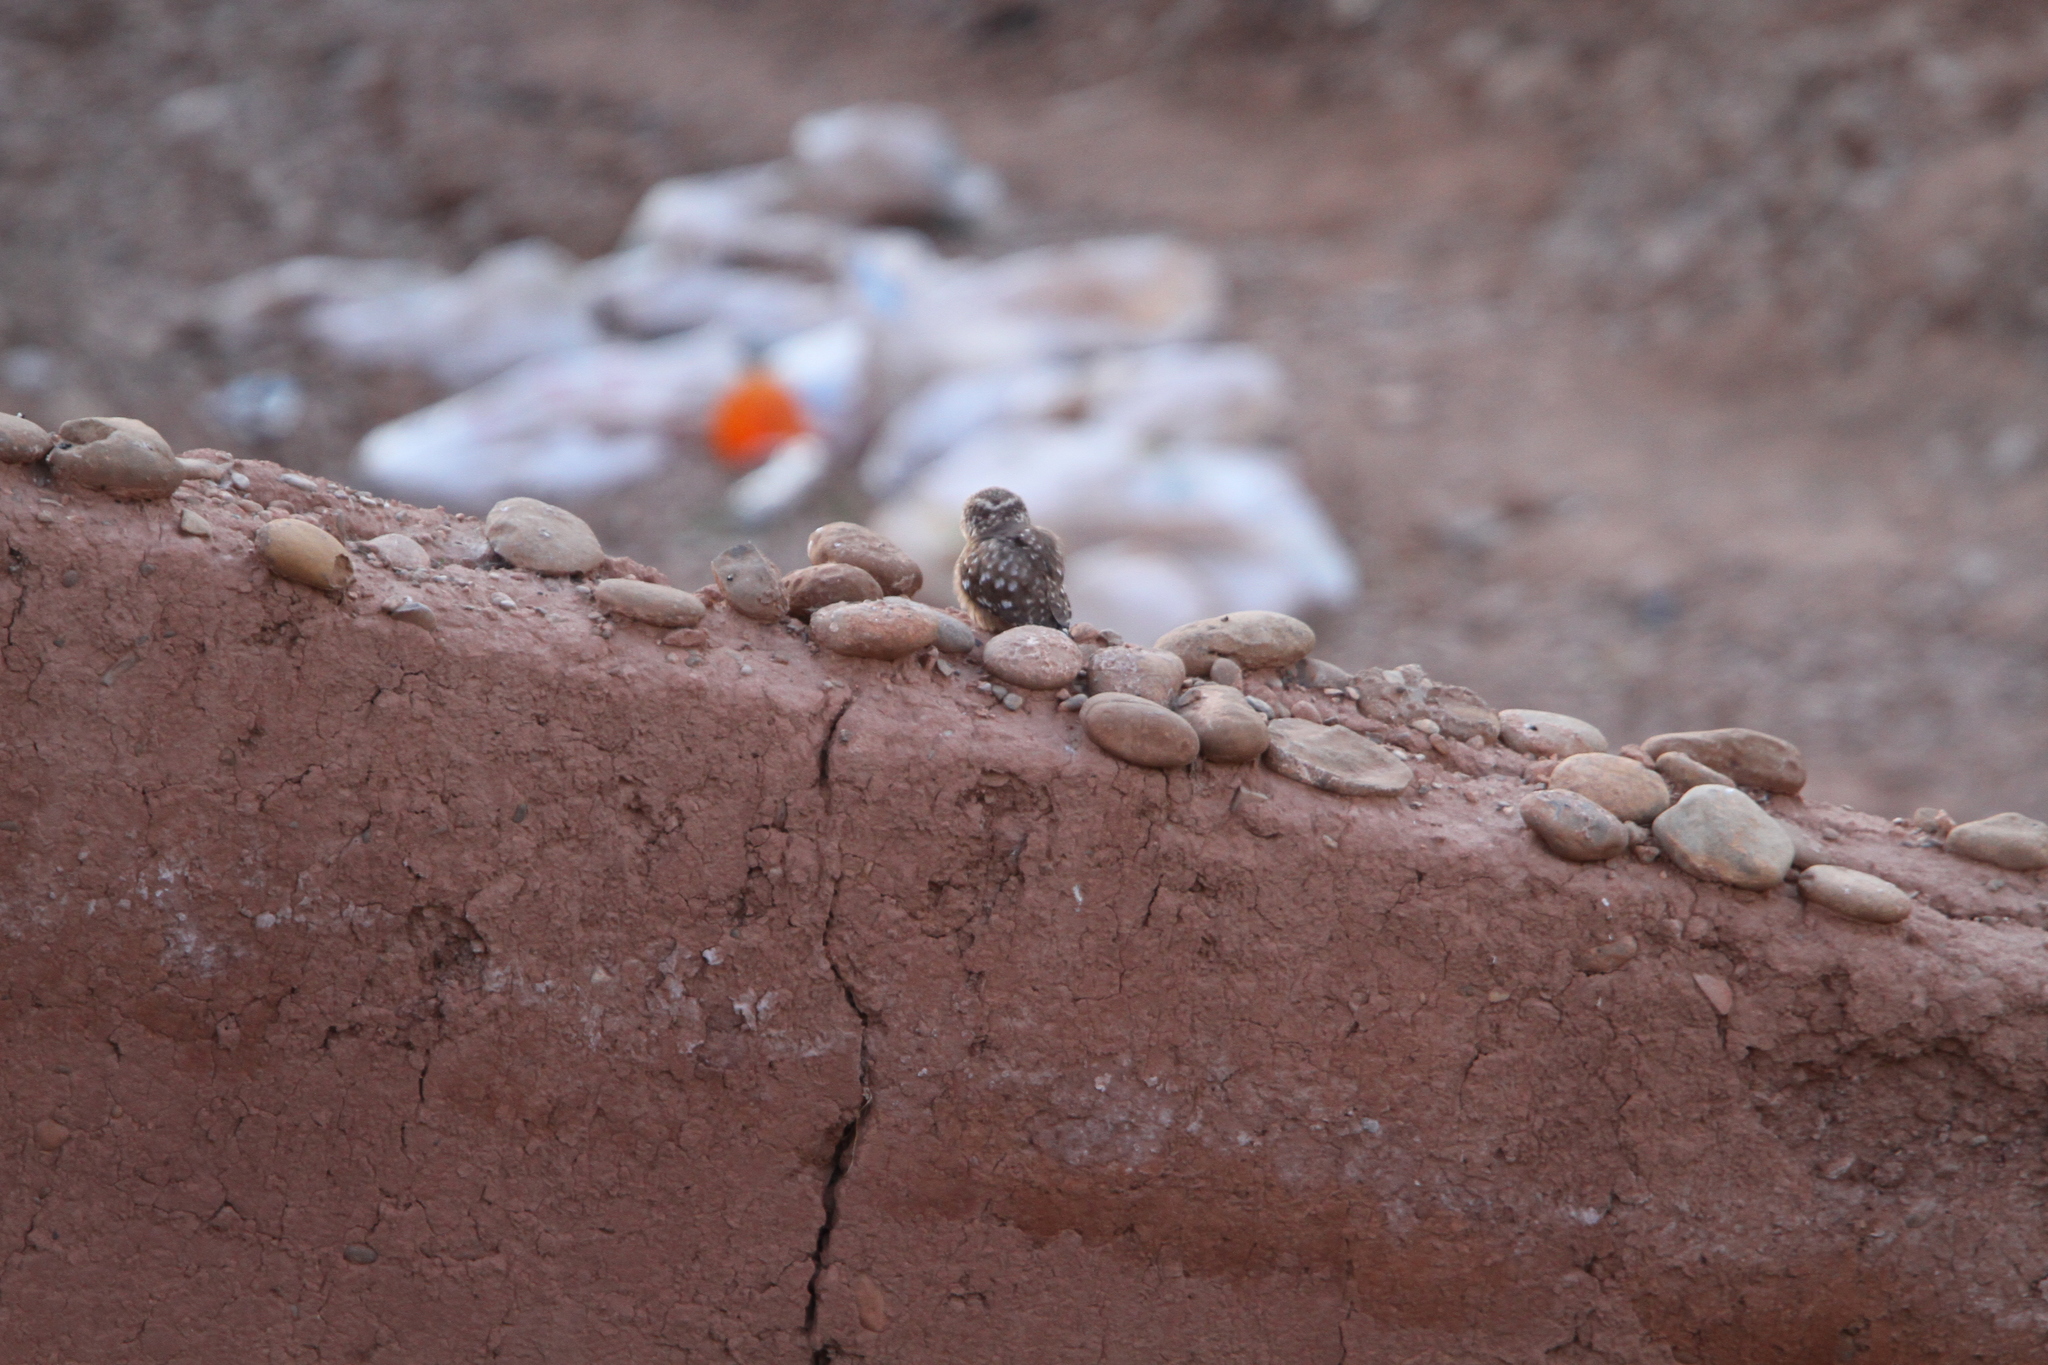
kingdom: Animalia
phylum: Chordata
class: Aves
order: Strigiformes
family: Strigidae
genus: Athene
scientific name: Athene noctua
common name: Little owl
